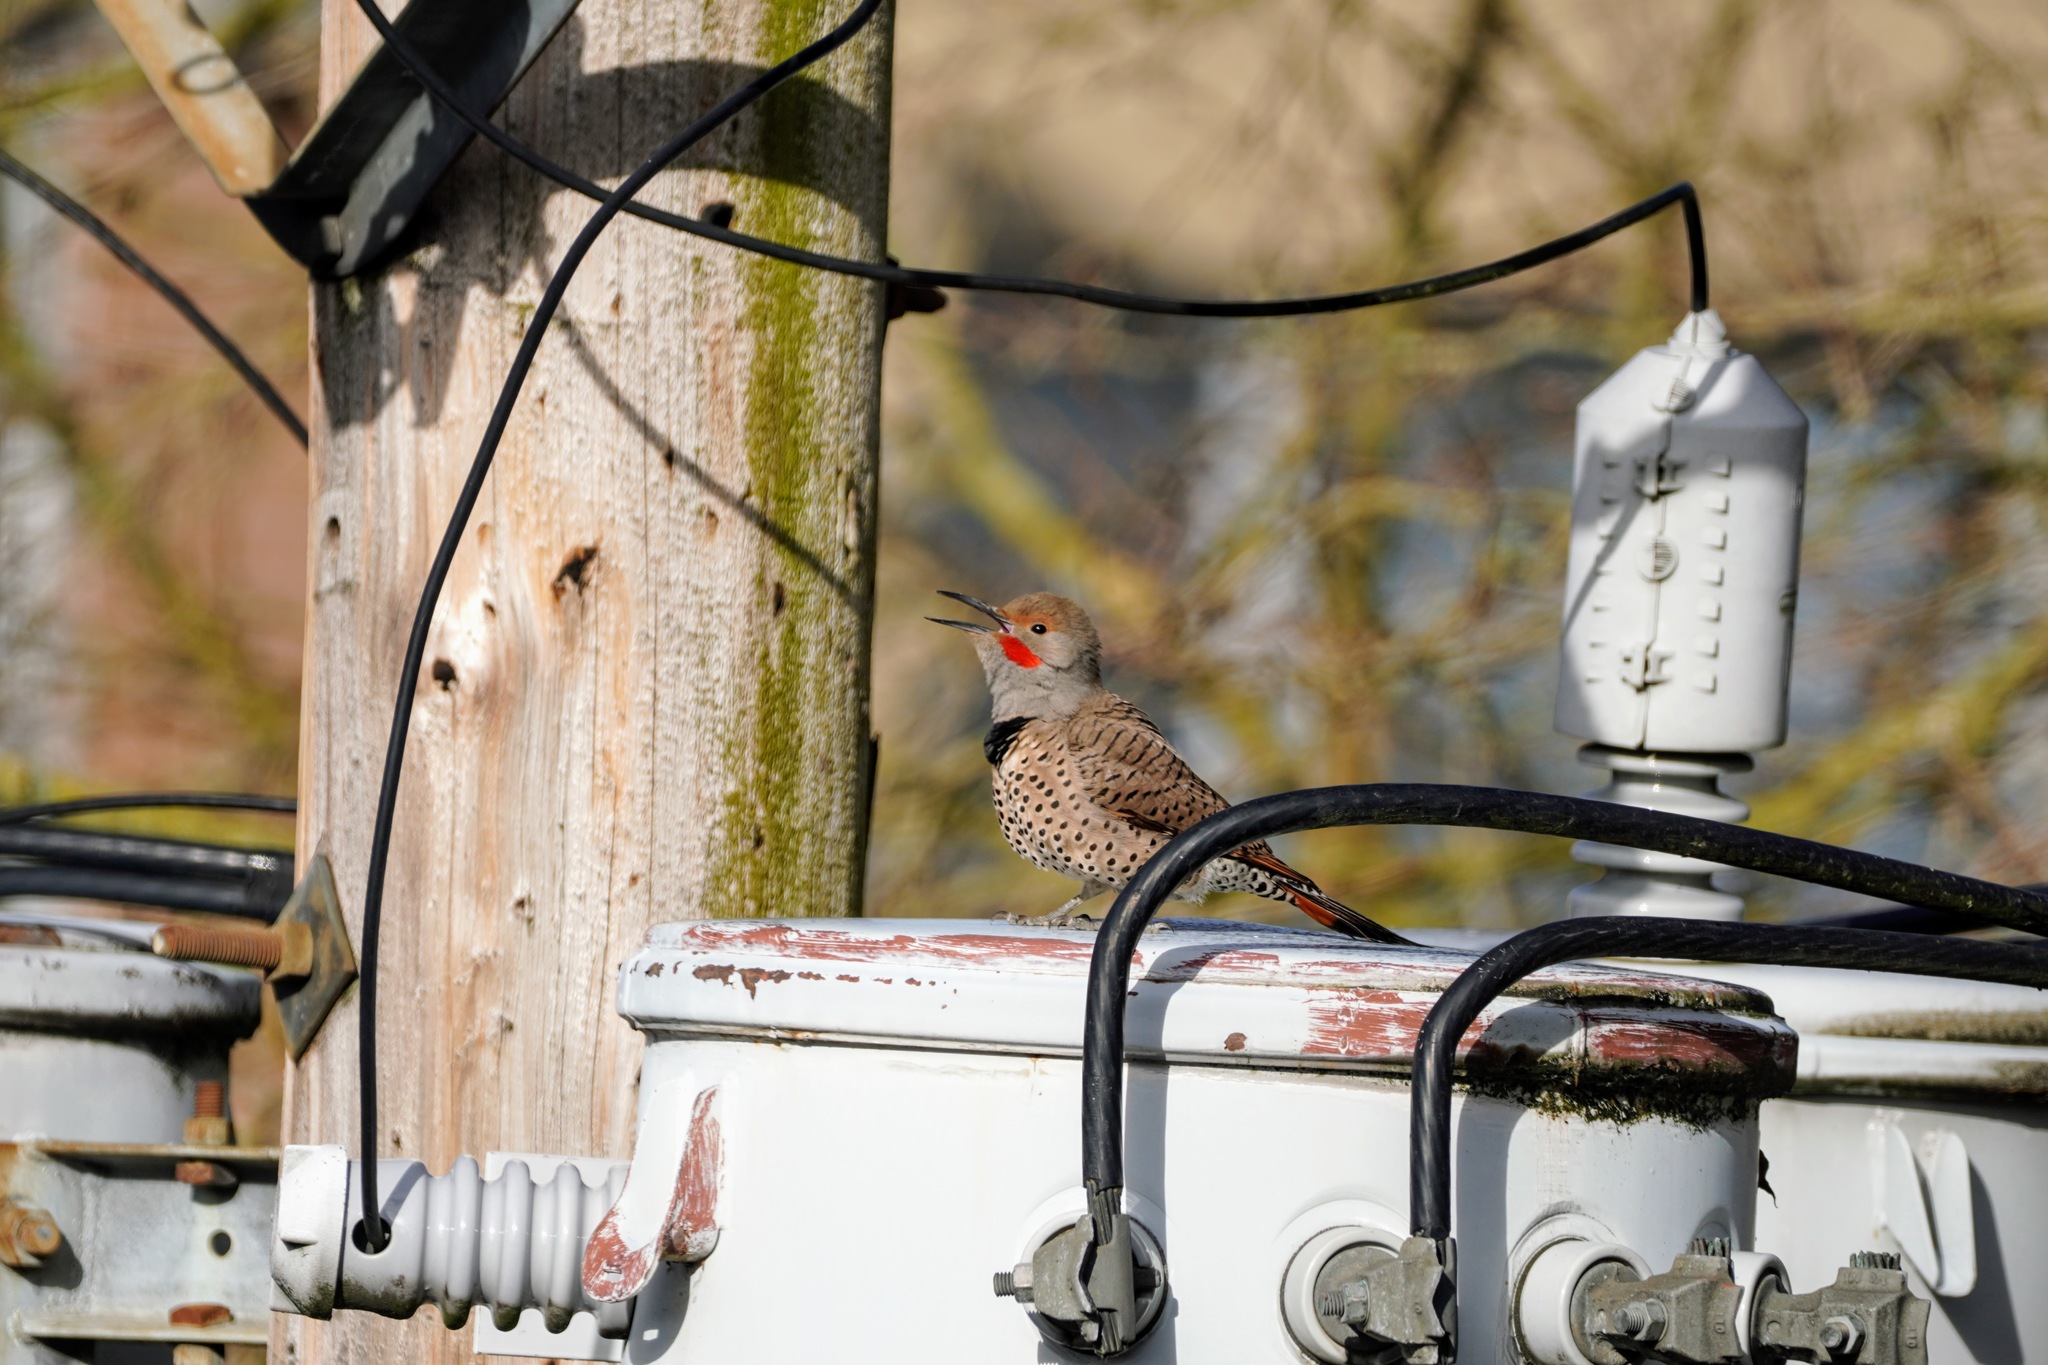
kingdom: Animalia
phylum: Chordata
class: Aves
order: Piciformes
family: Picidae
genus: Colaptes
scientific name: Colaptes auratus
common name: Northern flicker
